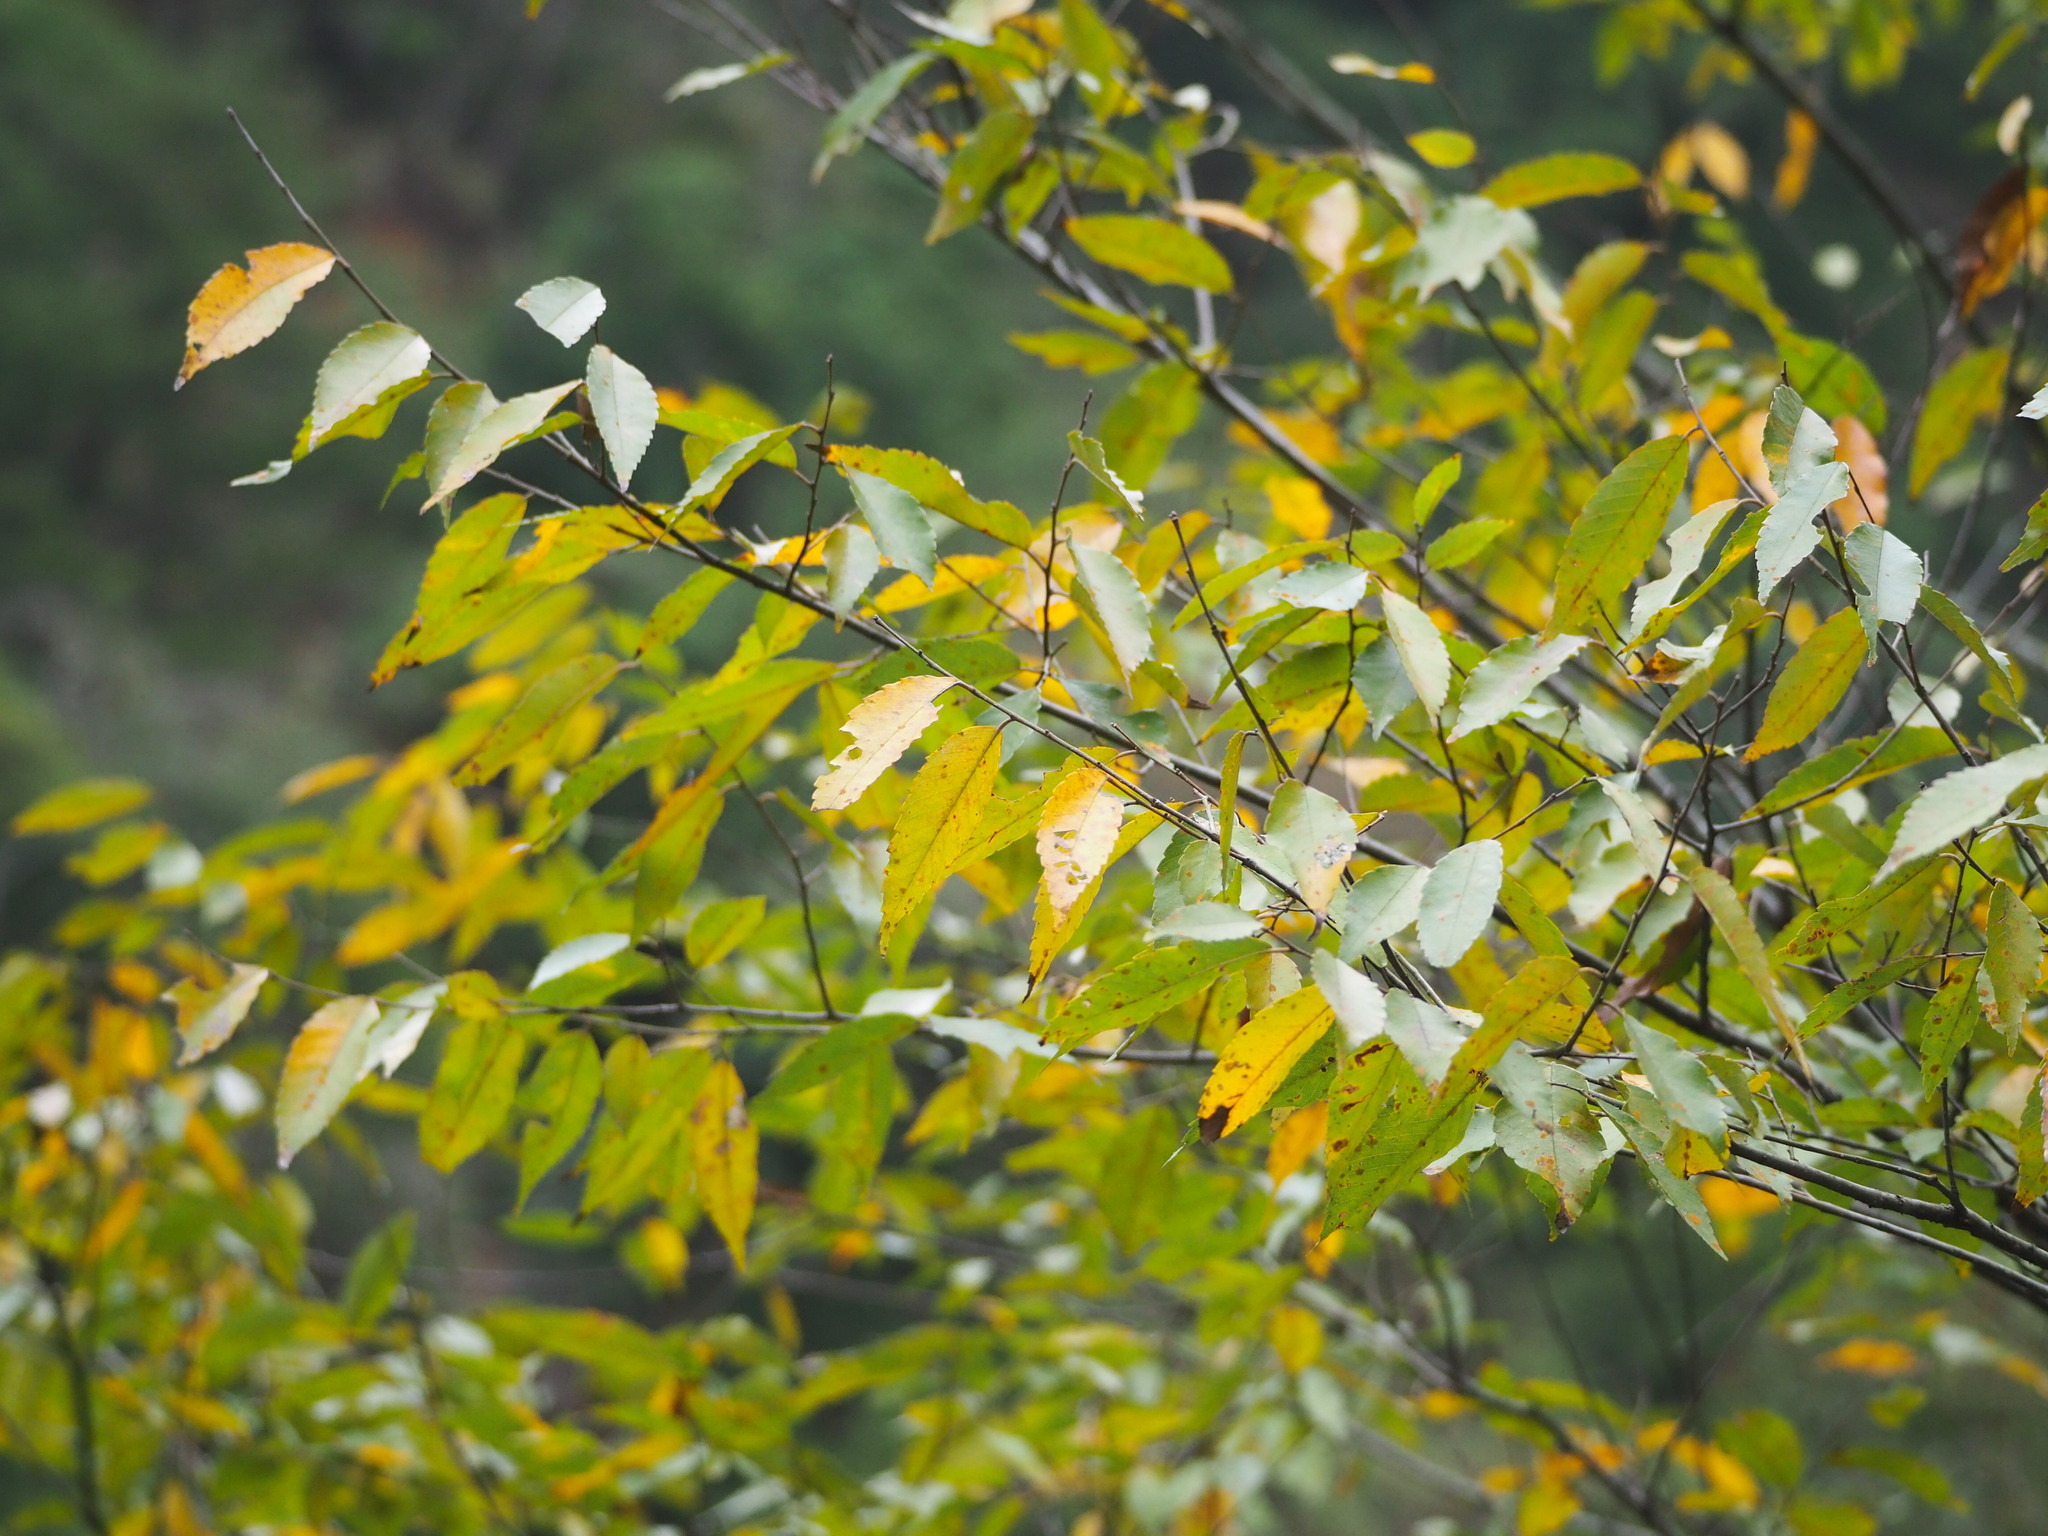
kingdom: Plantae
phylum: Tracheophyta
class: Magnoliopsida
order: Rosales
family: Ulmaceae
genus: Zelkova
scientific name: Zelkova serrata
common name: Japanese zelkova
